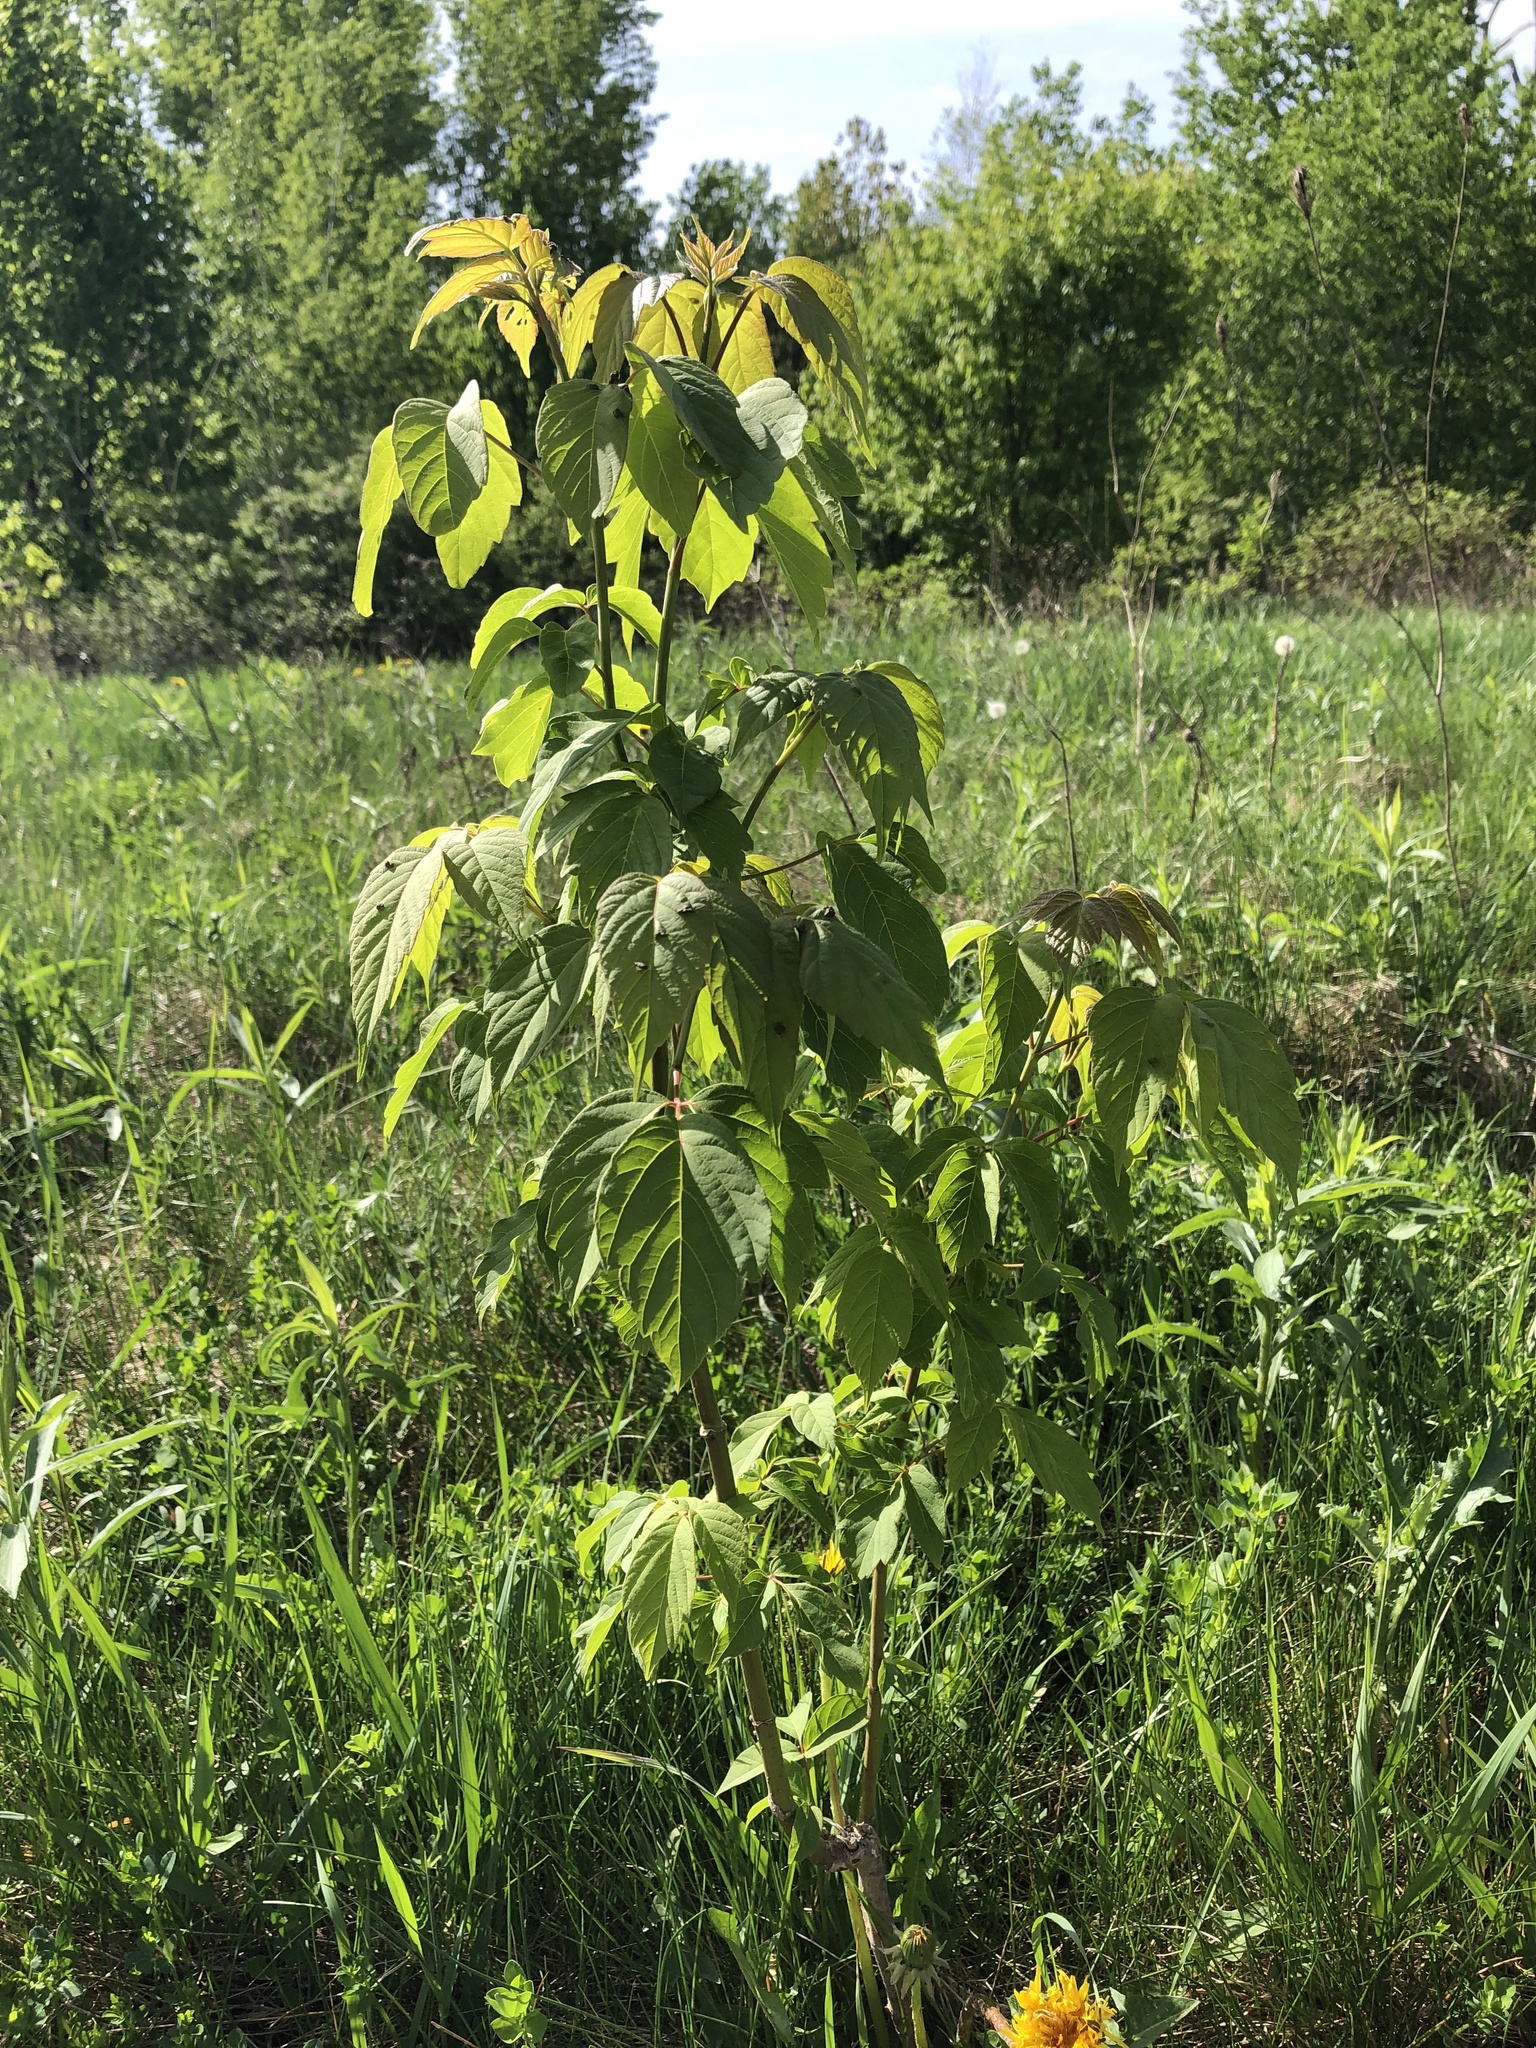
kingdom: Plantae
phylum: Tracheophyta
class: Magnoliopsida
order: Sapindales
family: Sapindaceae
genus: Acer
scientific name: Acer negundo
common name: Ashleaf maple
